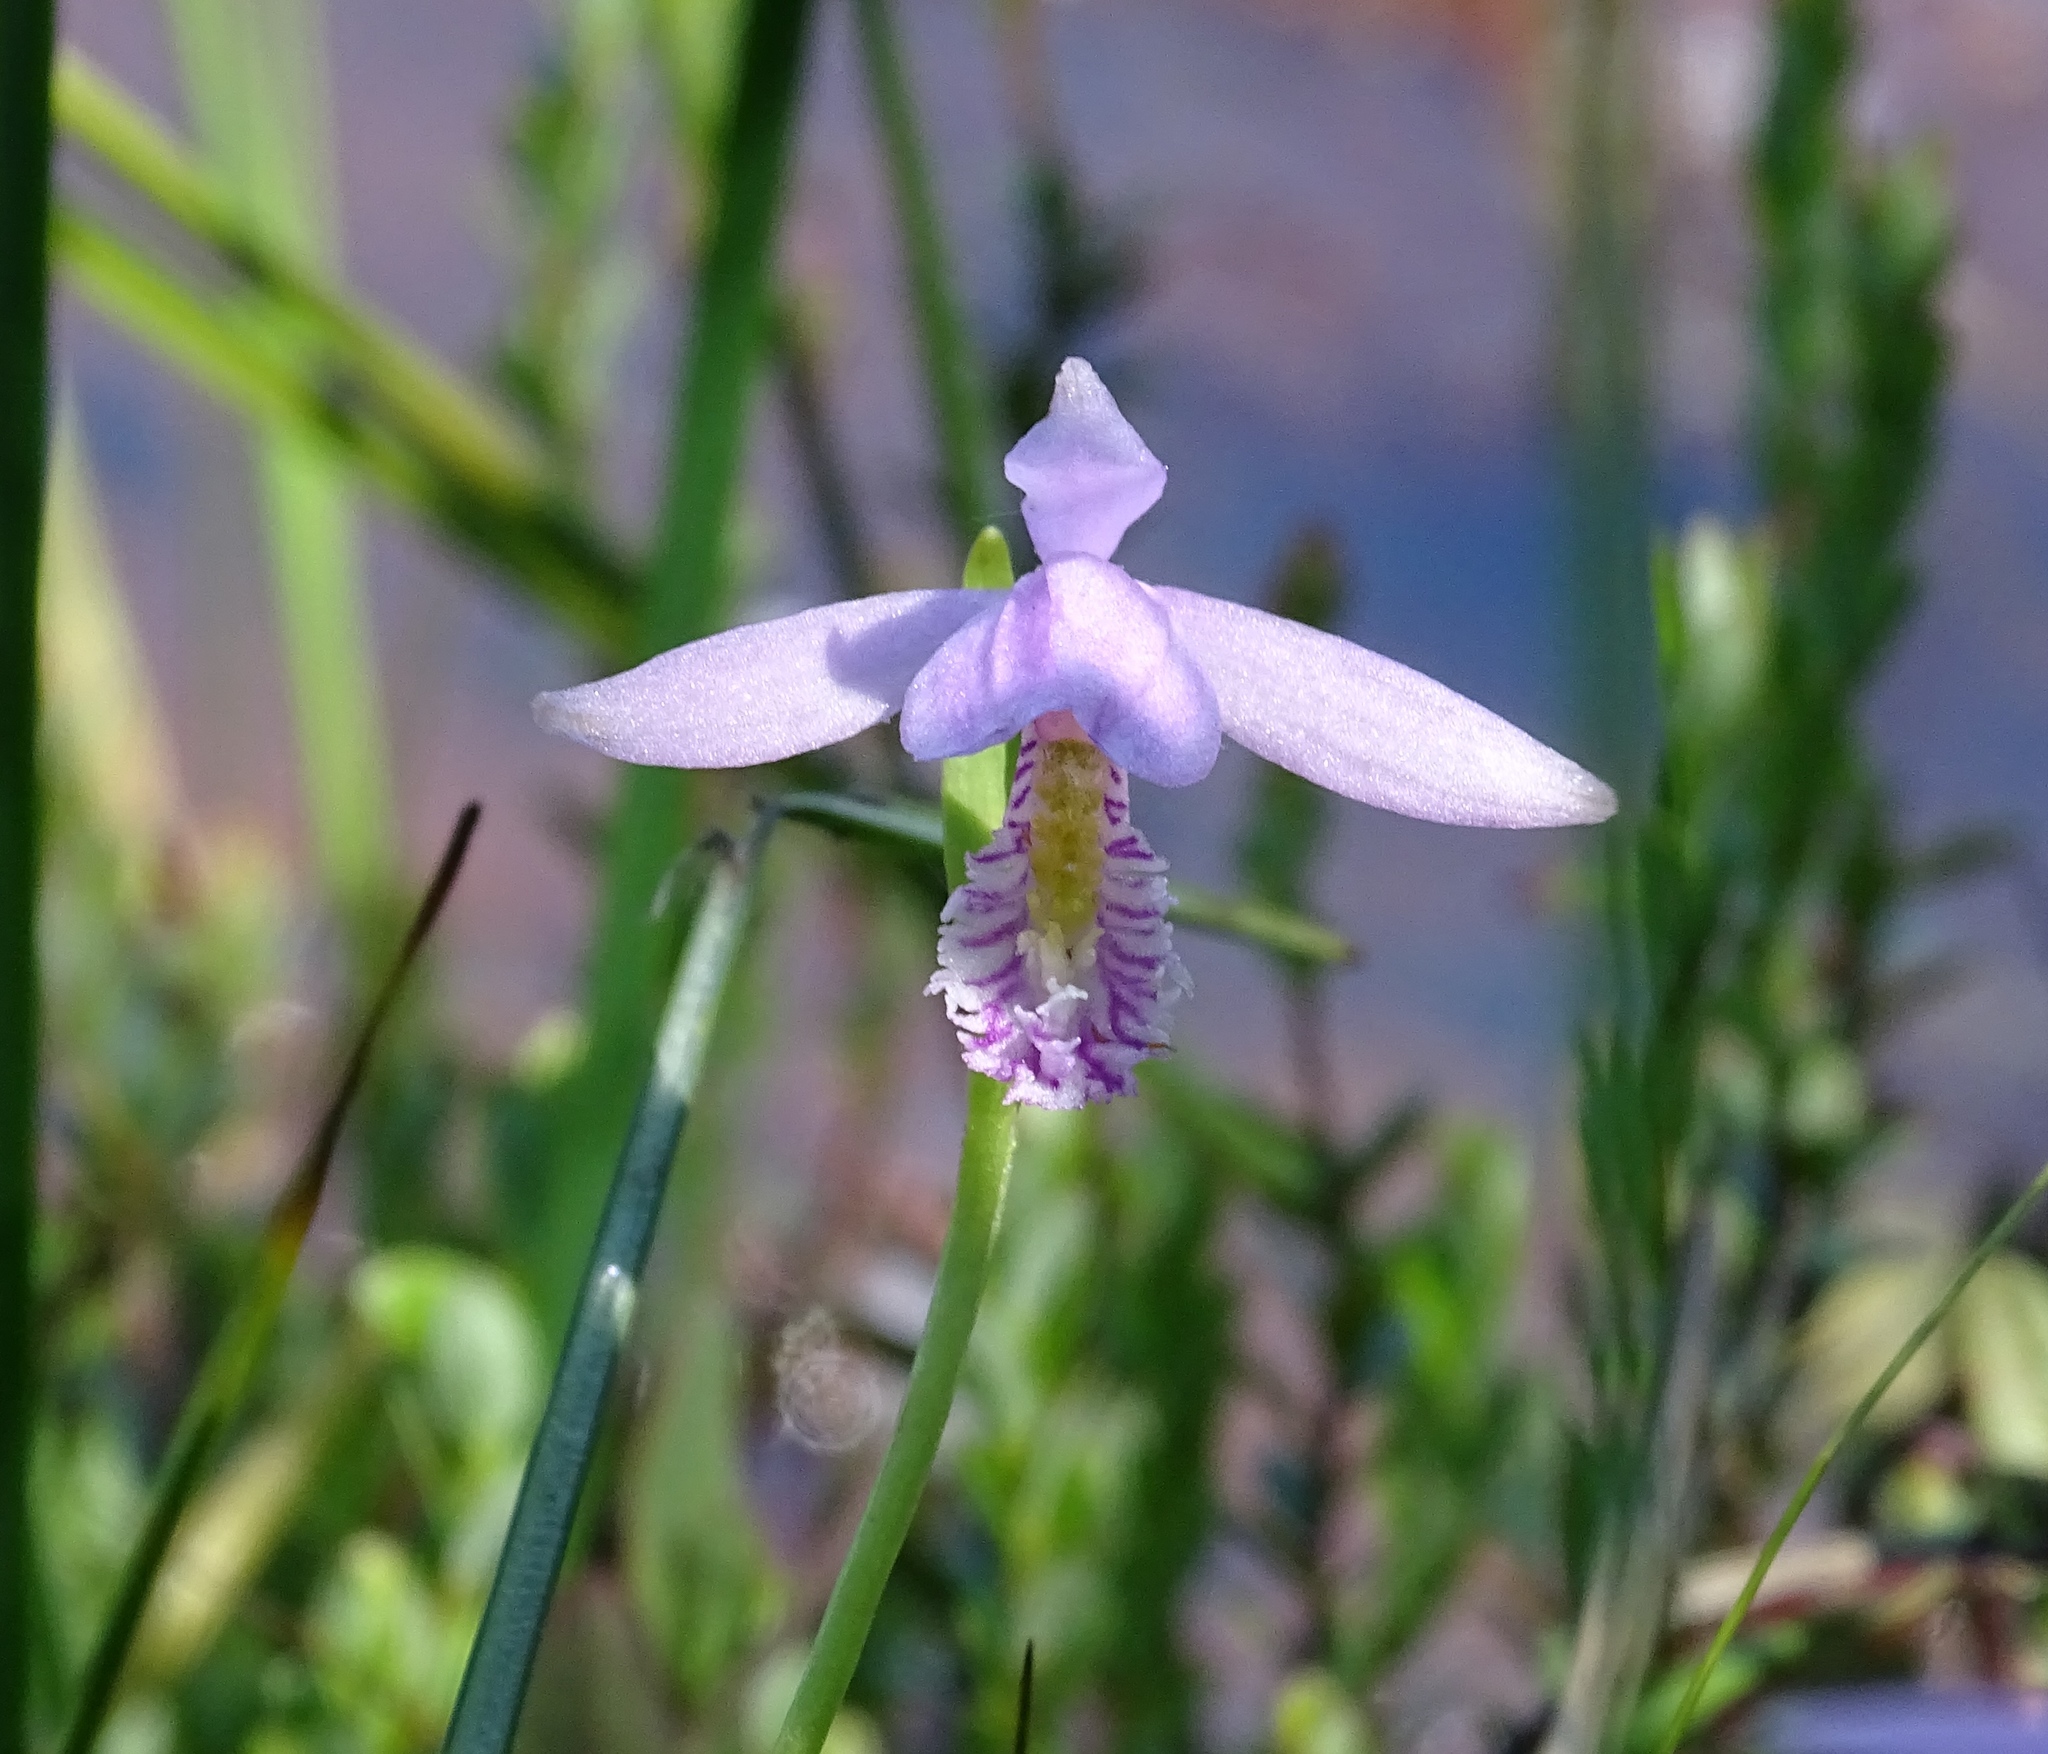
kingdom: Plantae
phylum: Tracheophyta
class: Liliopsida
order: Asparagales
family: Orchidaceae
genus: Pogonia
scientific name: Pogonia ophioglossoides
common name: Rose pogonia
